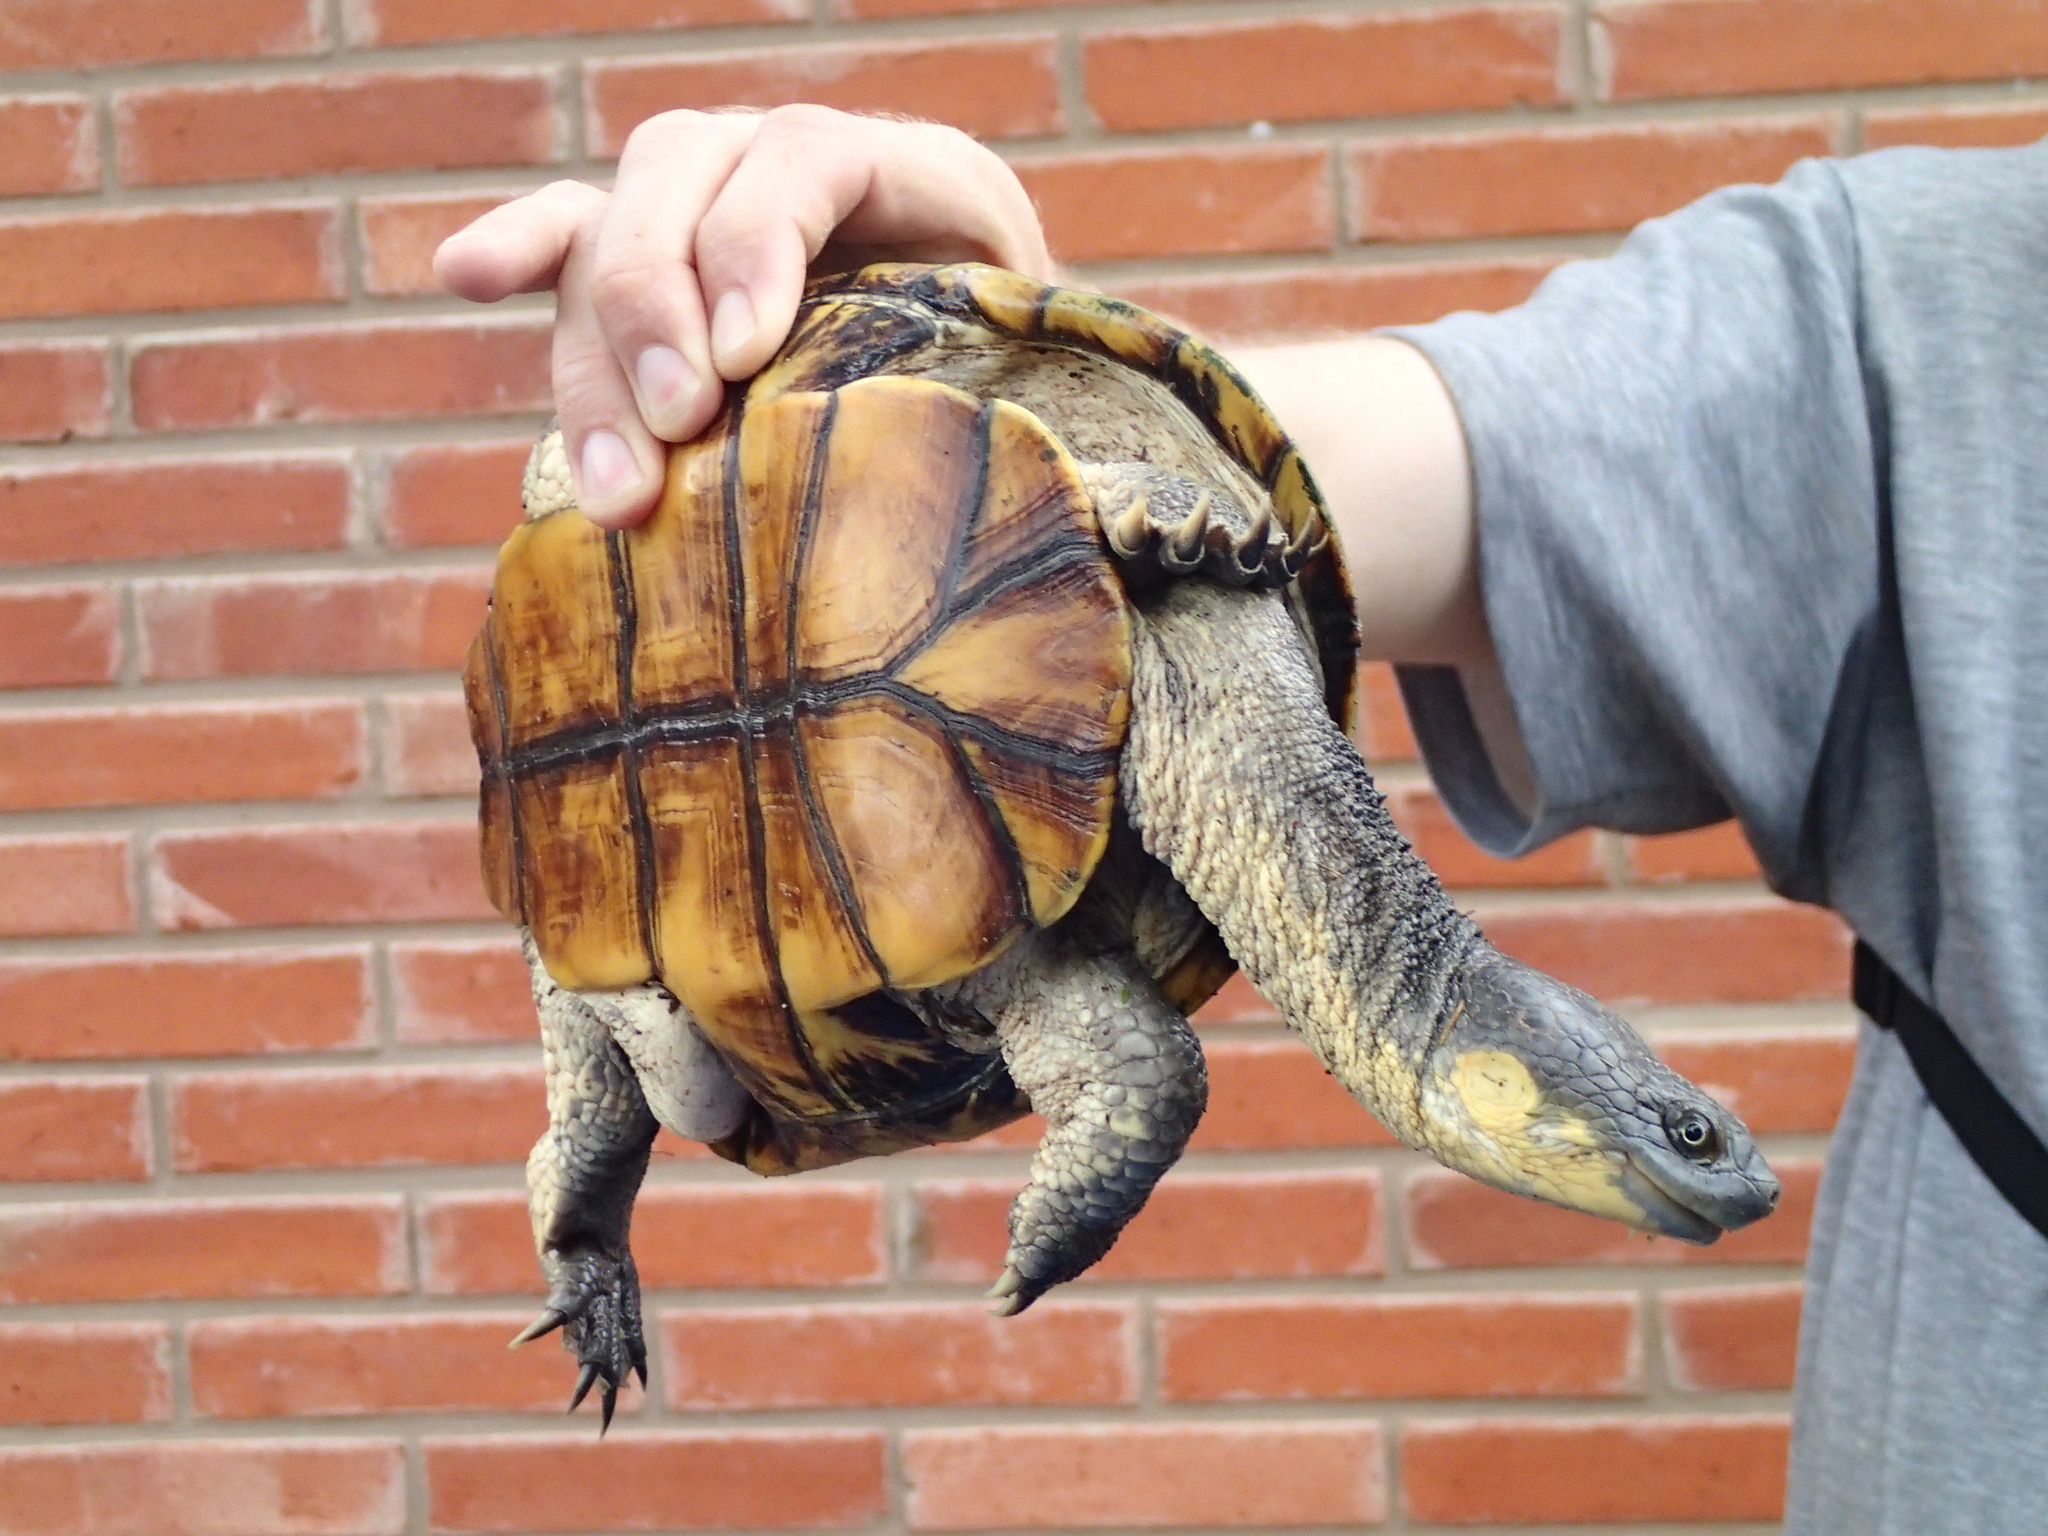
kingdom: Animalia
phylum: Chordata
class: Testudines
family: Chelidae
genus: Acanthochelys
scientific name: Acanthochelys macrocephala
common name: Pantanal swamp turtle
